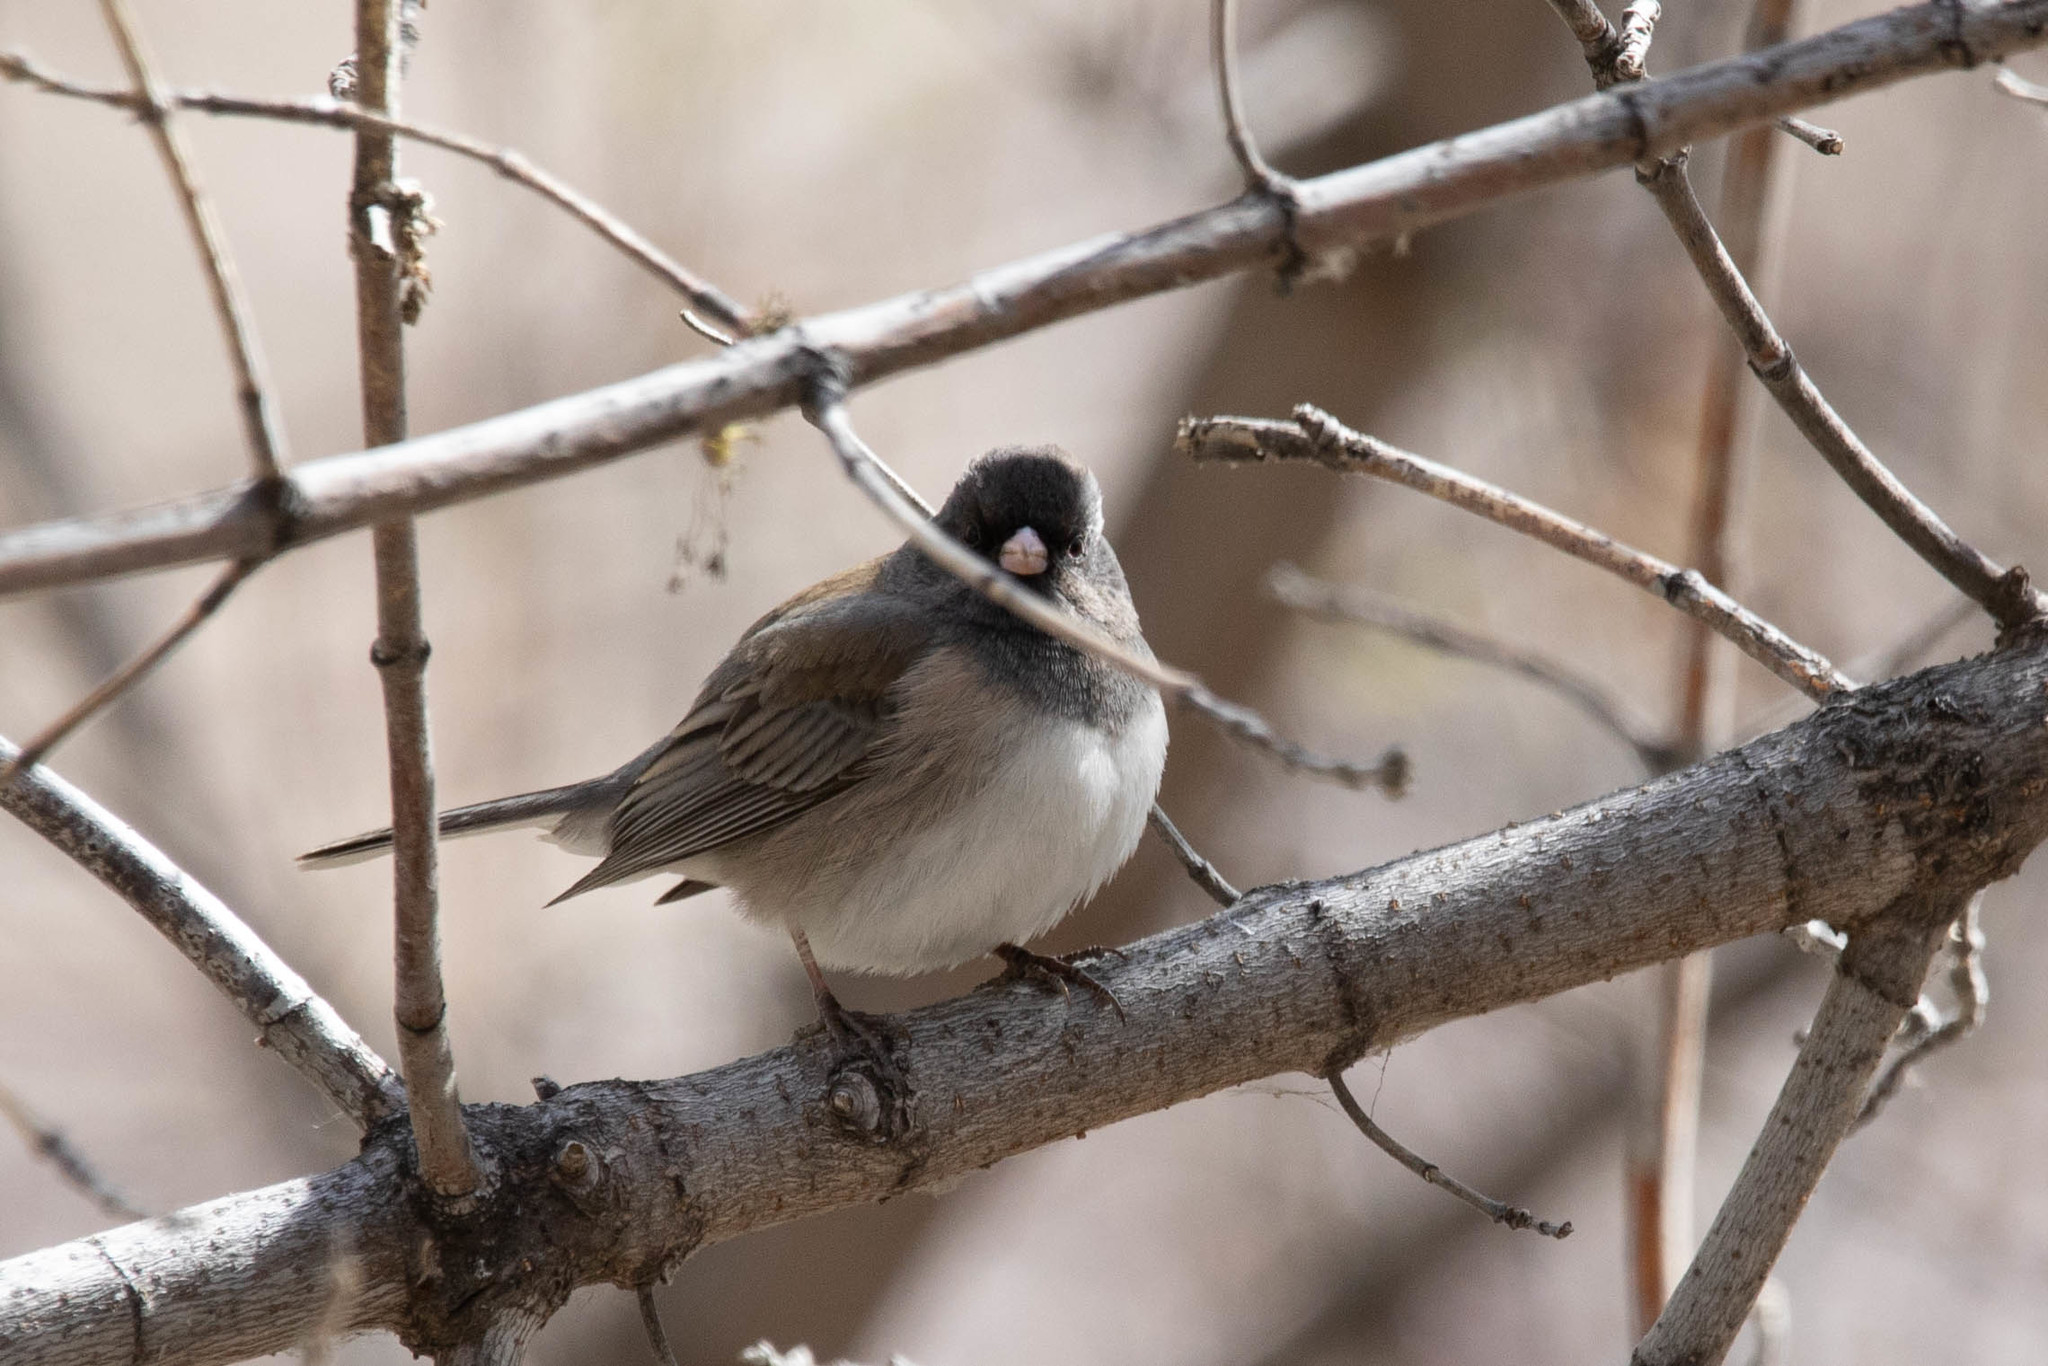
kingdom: Animalia
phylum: Chordata
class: Aves
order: Passeriformes
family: Passerellidae
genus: Junco
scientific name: Junco hyemalis
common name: Dark-eyed junco
